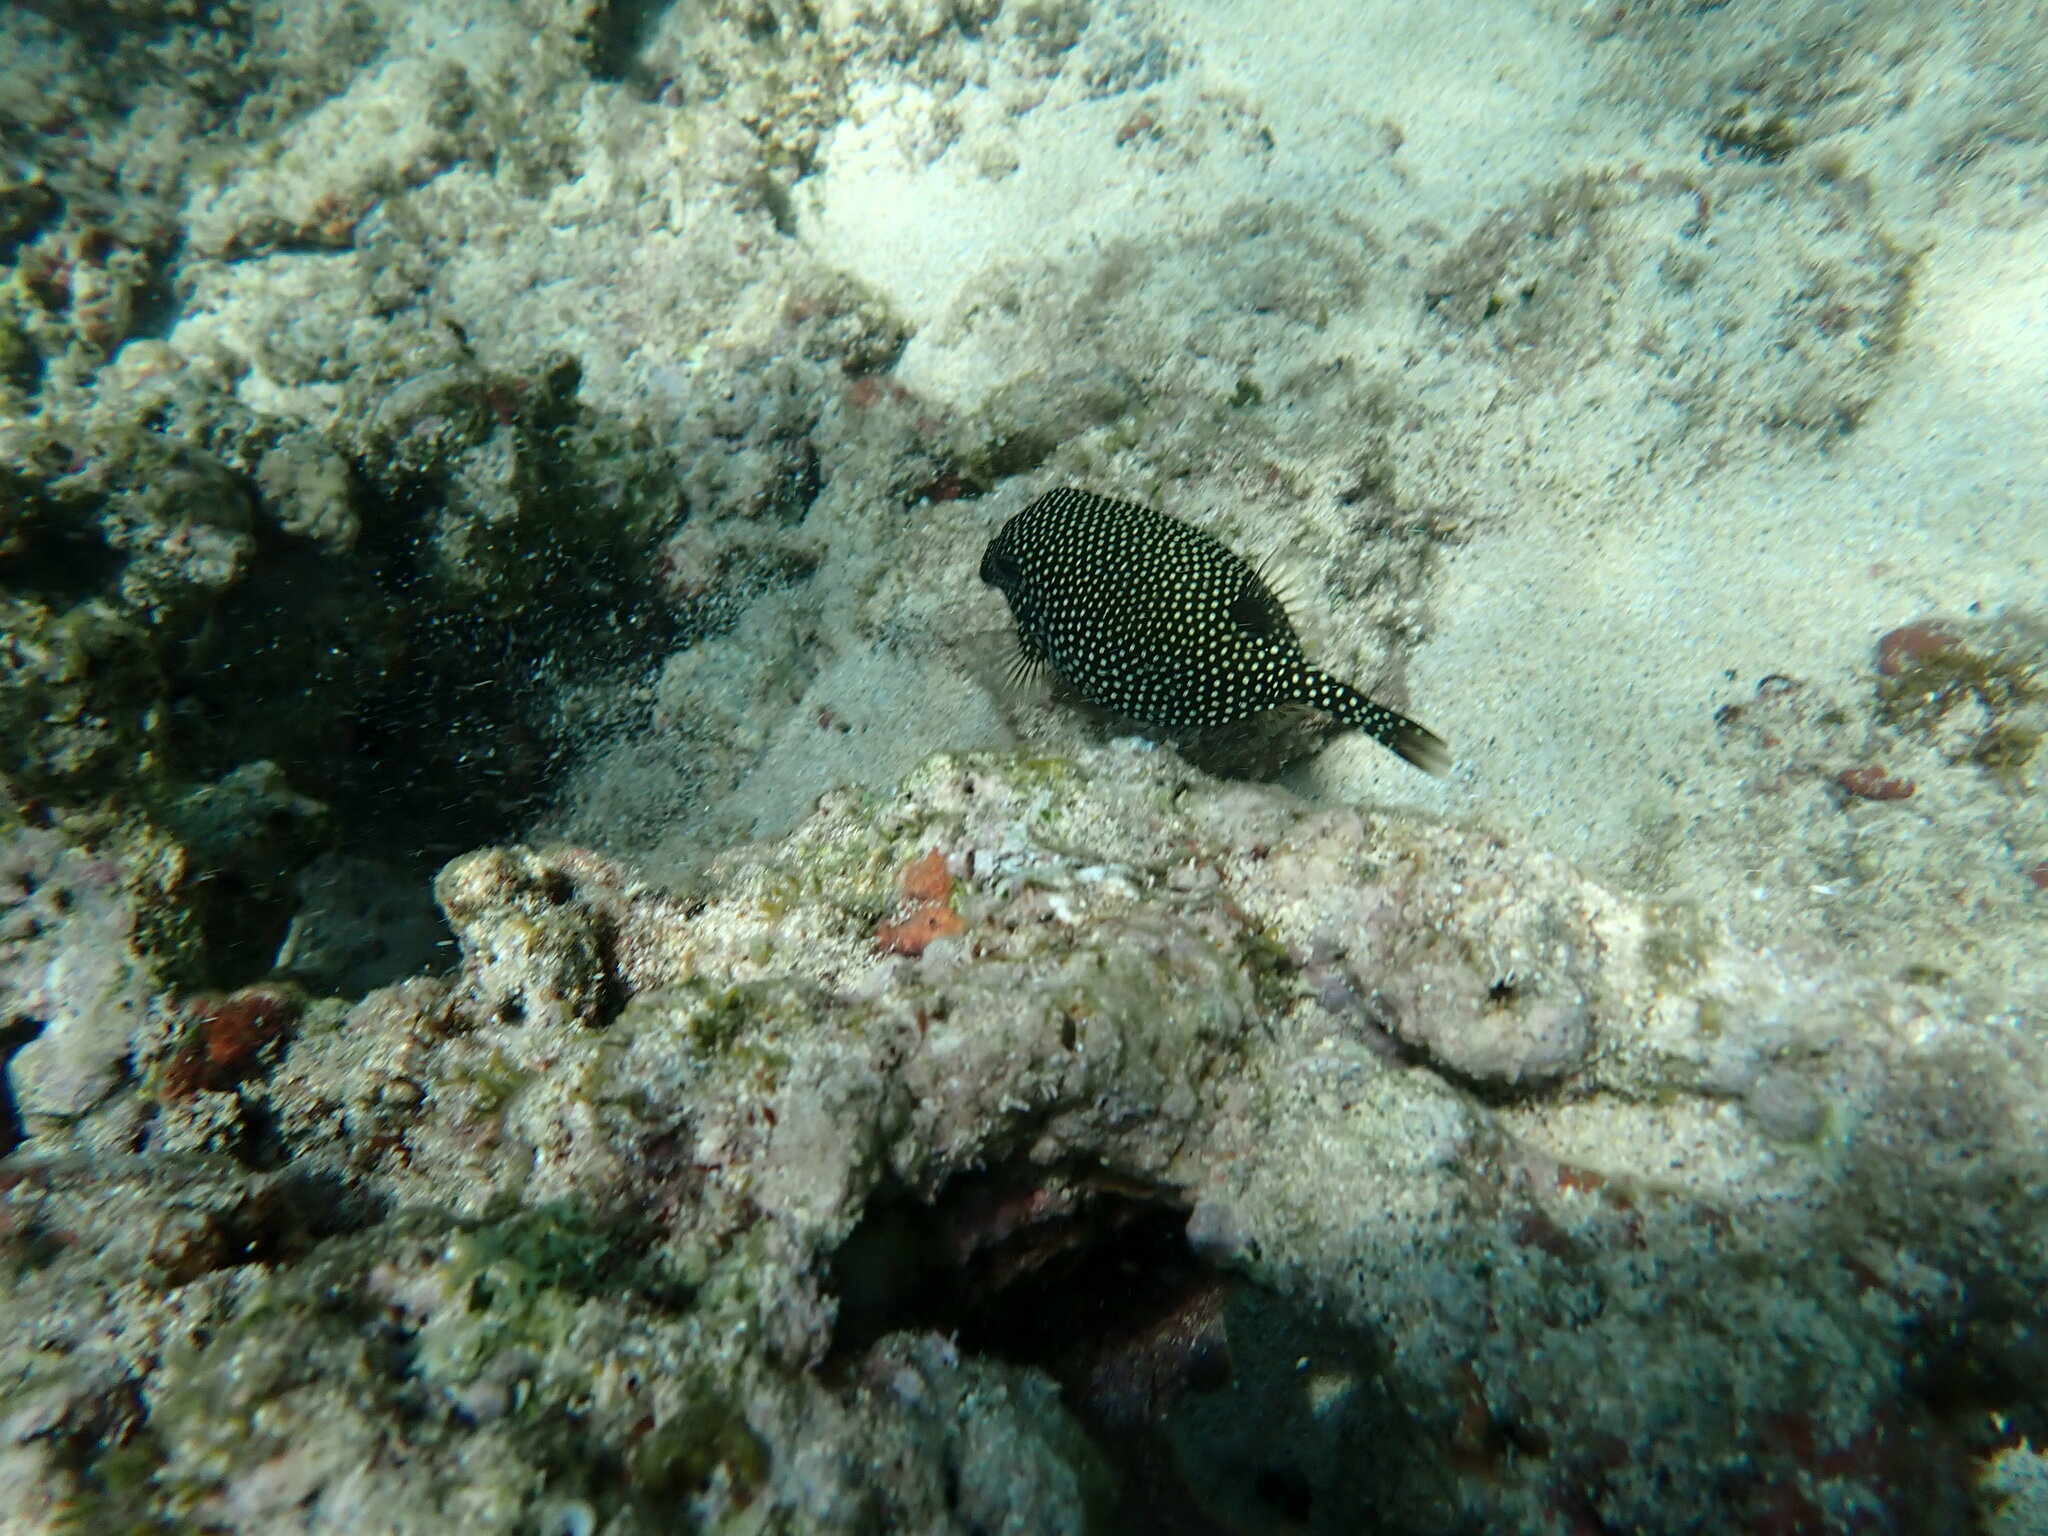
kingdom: Animalia
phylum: Chordata
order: Tetraodontiformes
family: Ostraciidae
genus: Ostracion
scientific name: Ostracion meleagris
